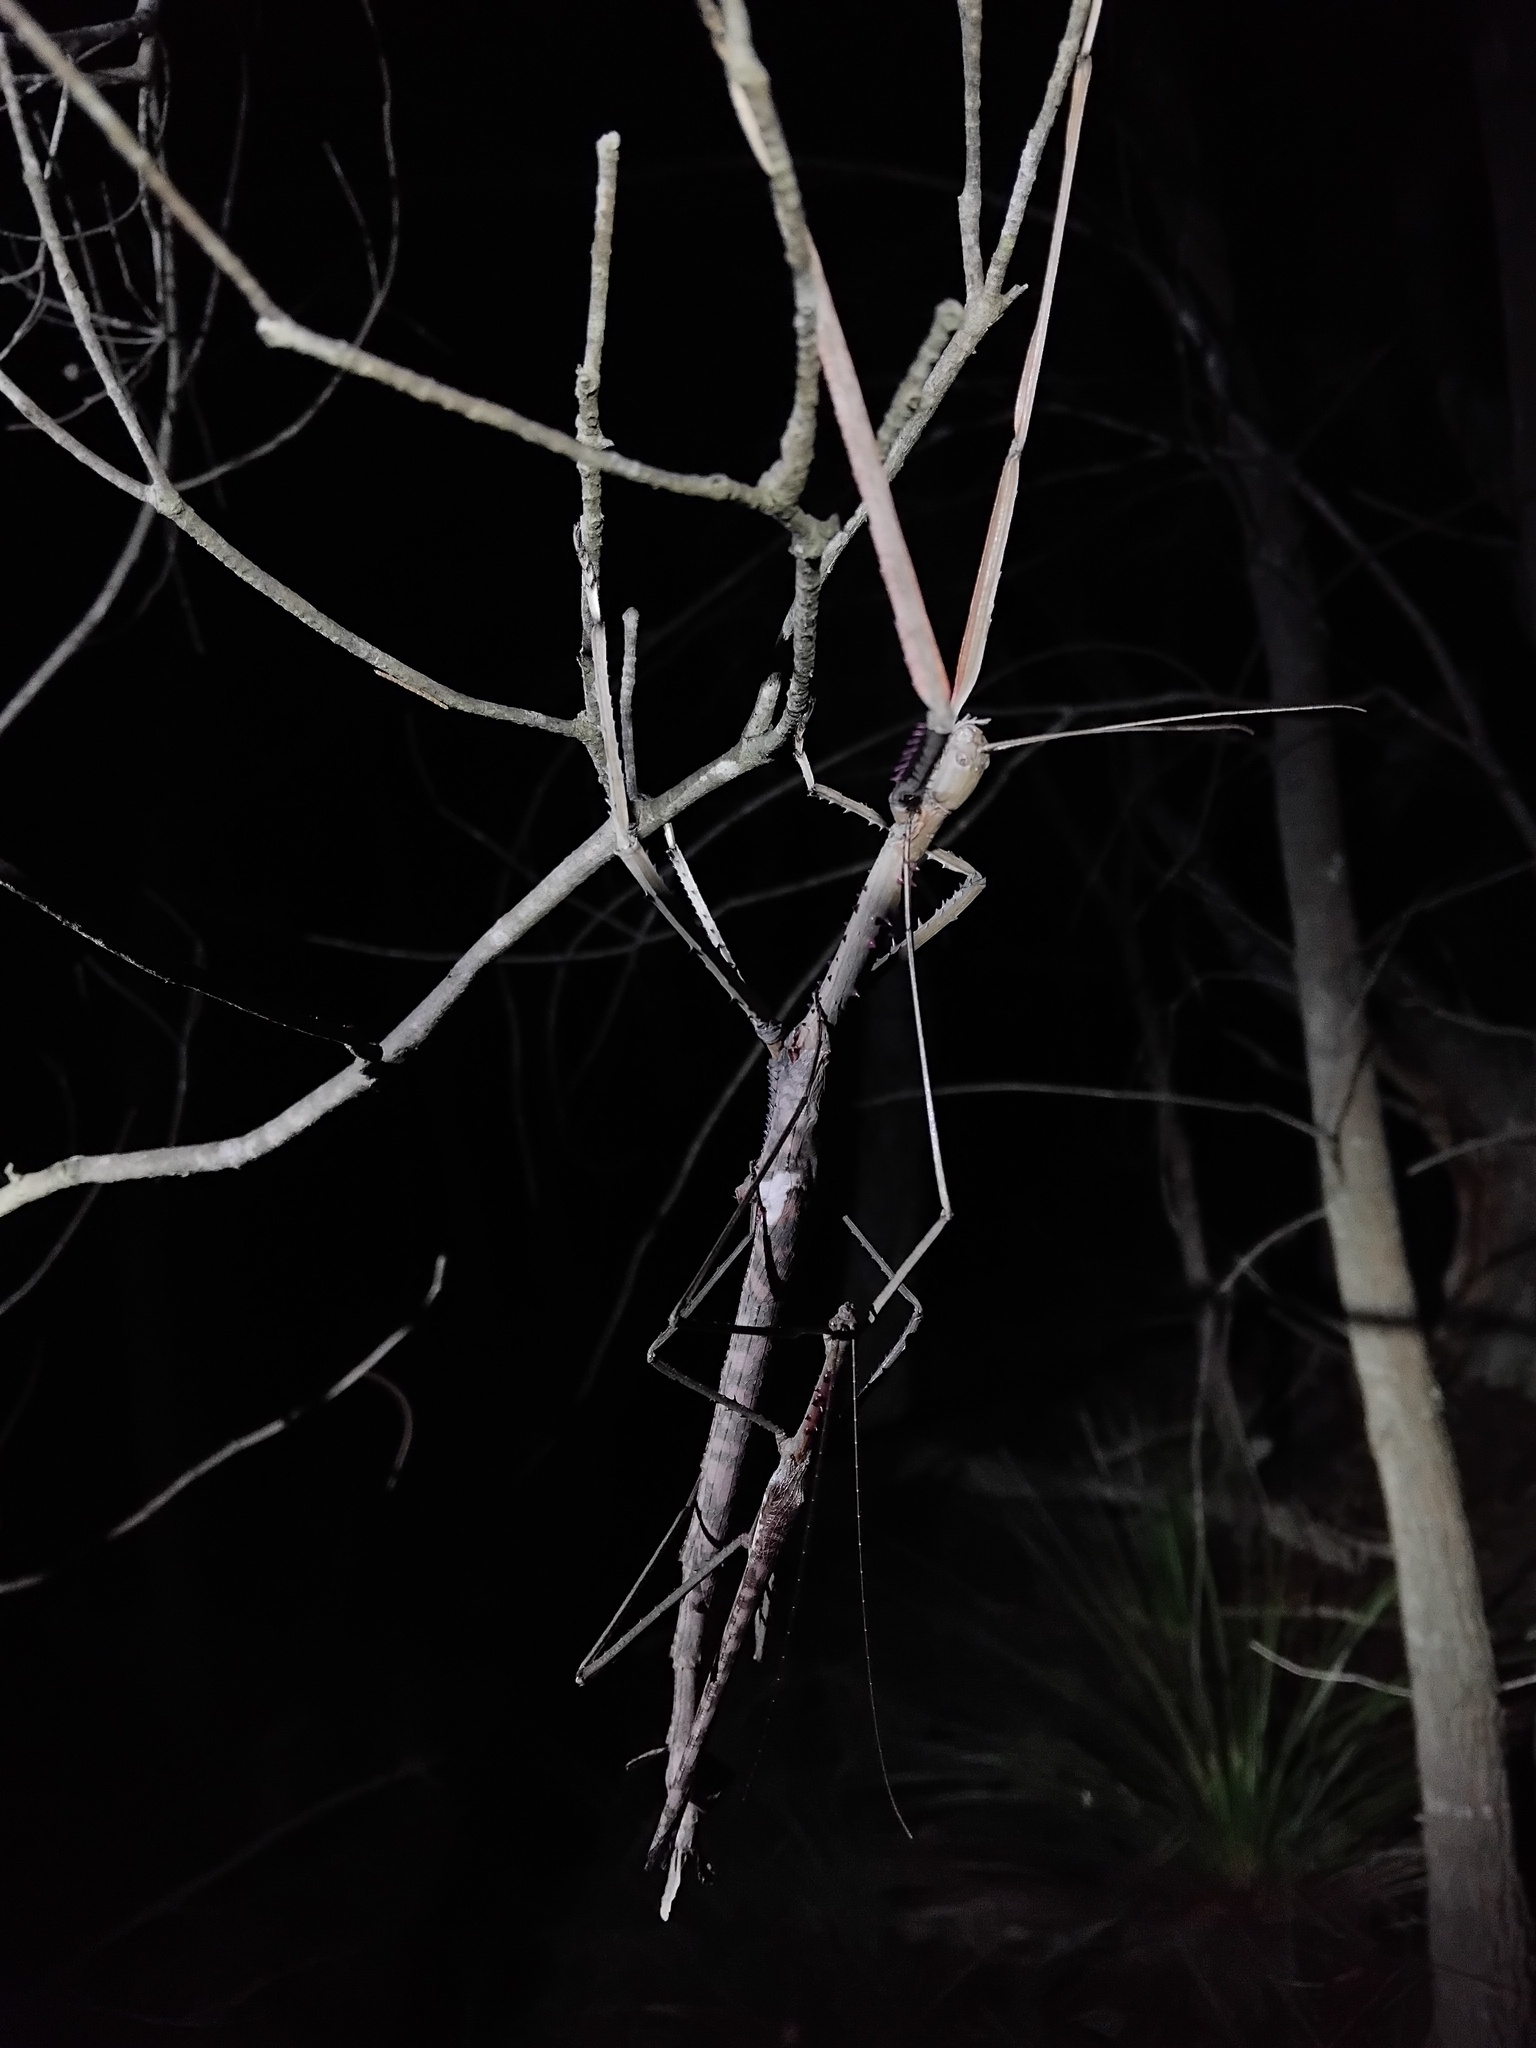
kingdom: Animalia
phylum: Arthropoda
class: Insecta
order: Phasmida
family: Phasmatidae
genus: Acrophylla
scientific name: Acrophylla titan
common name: Titan stick insect
